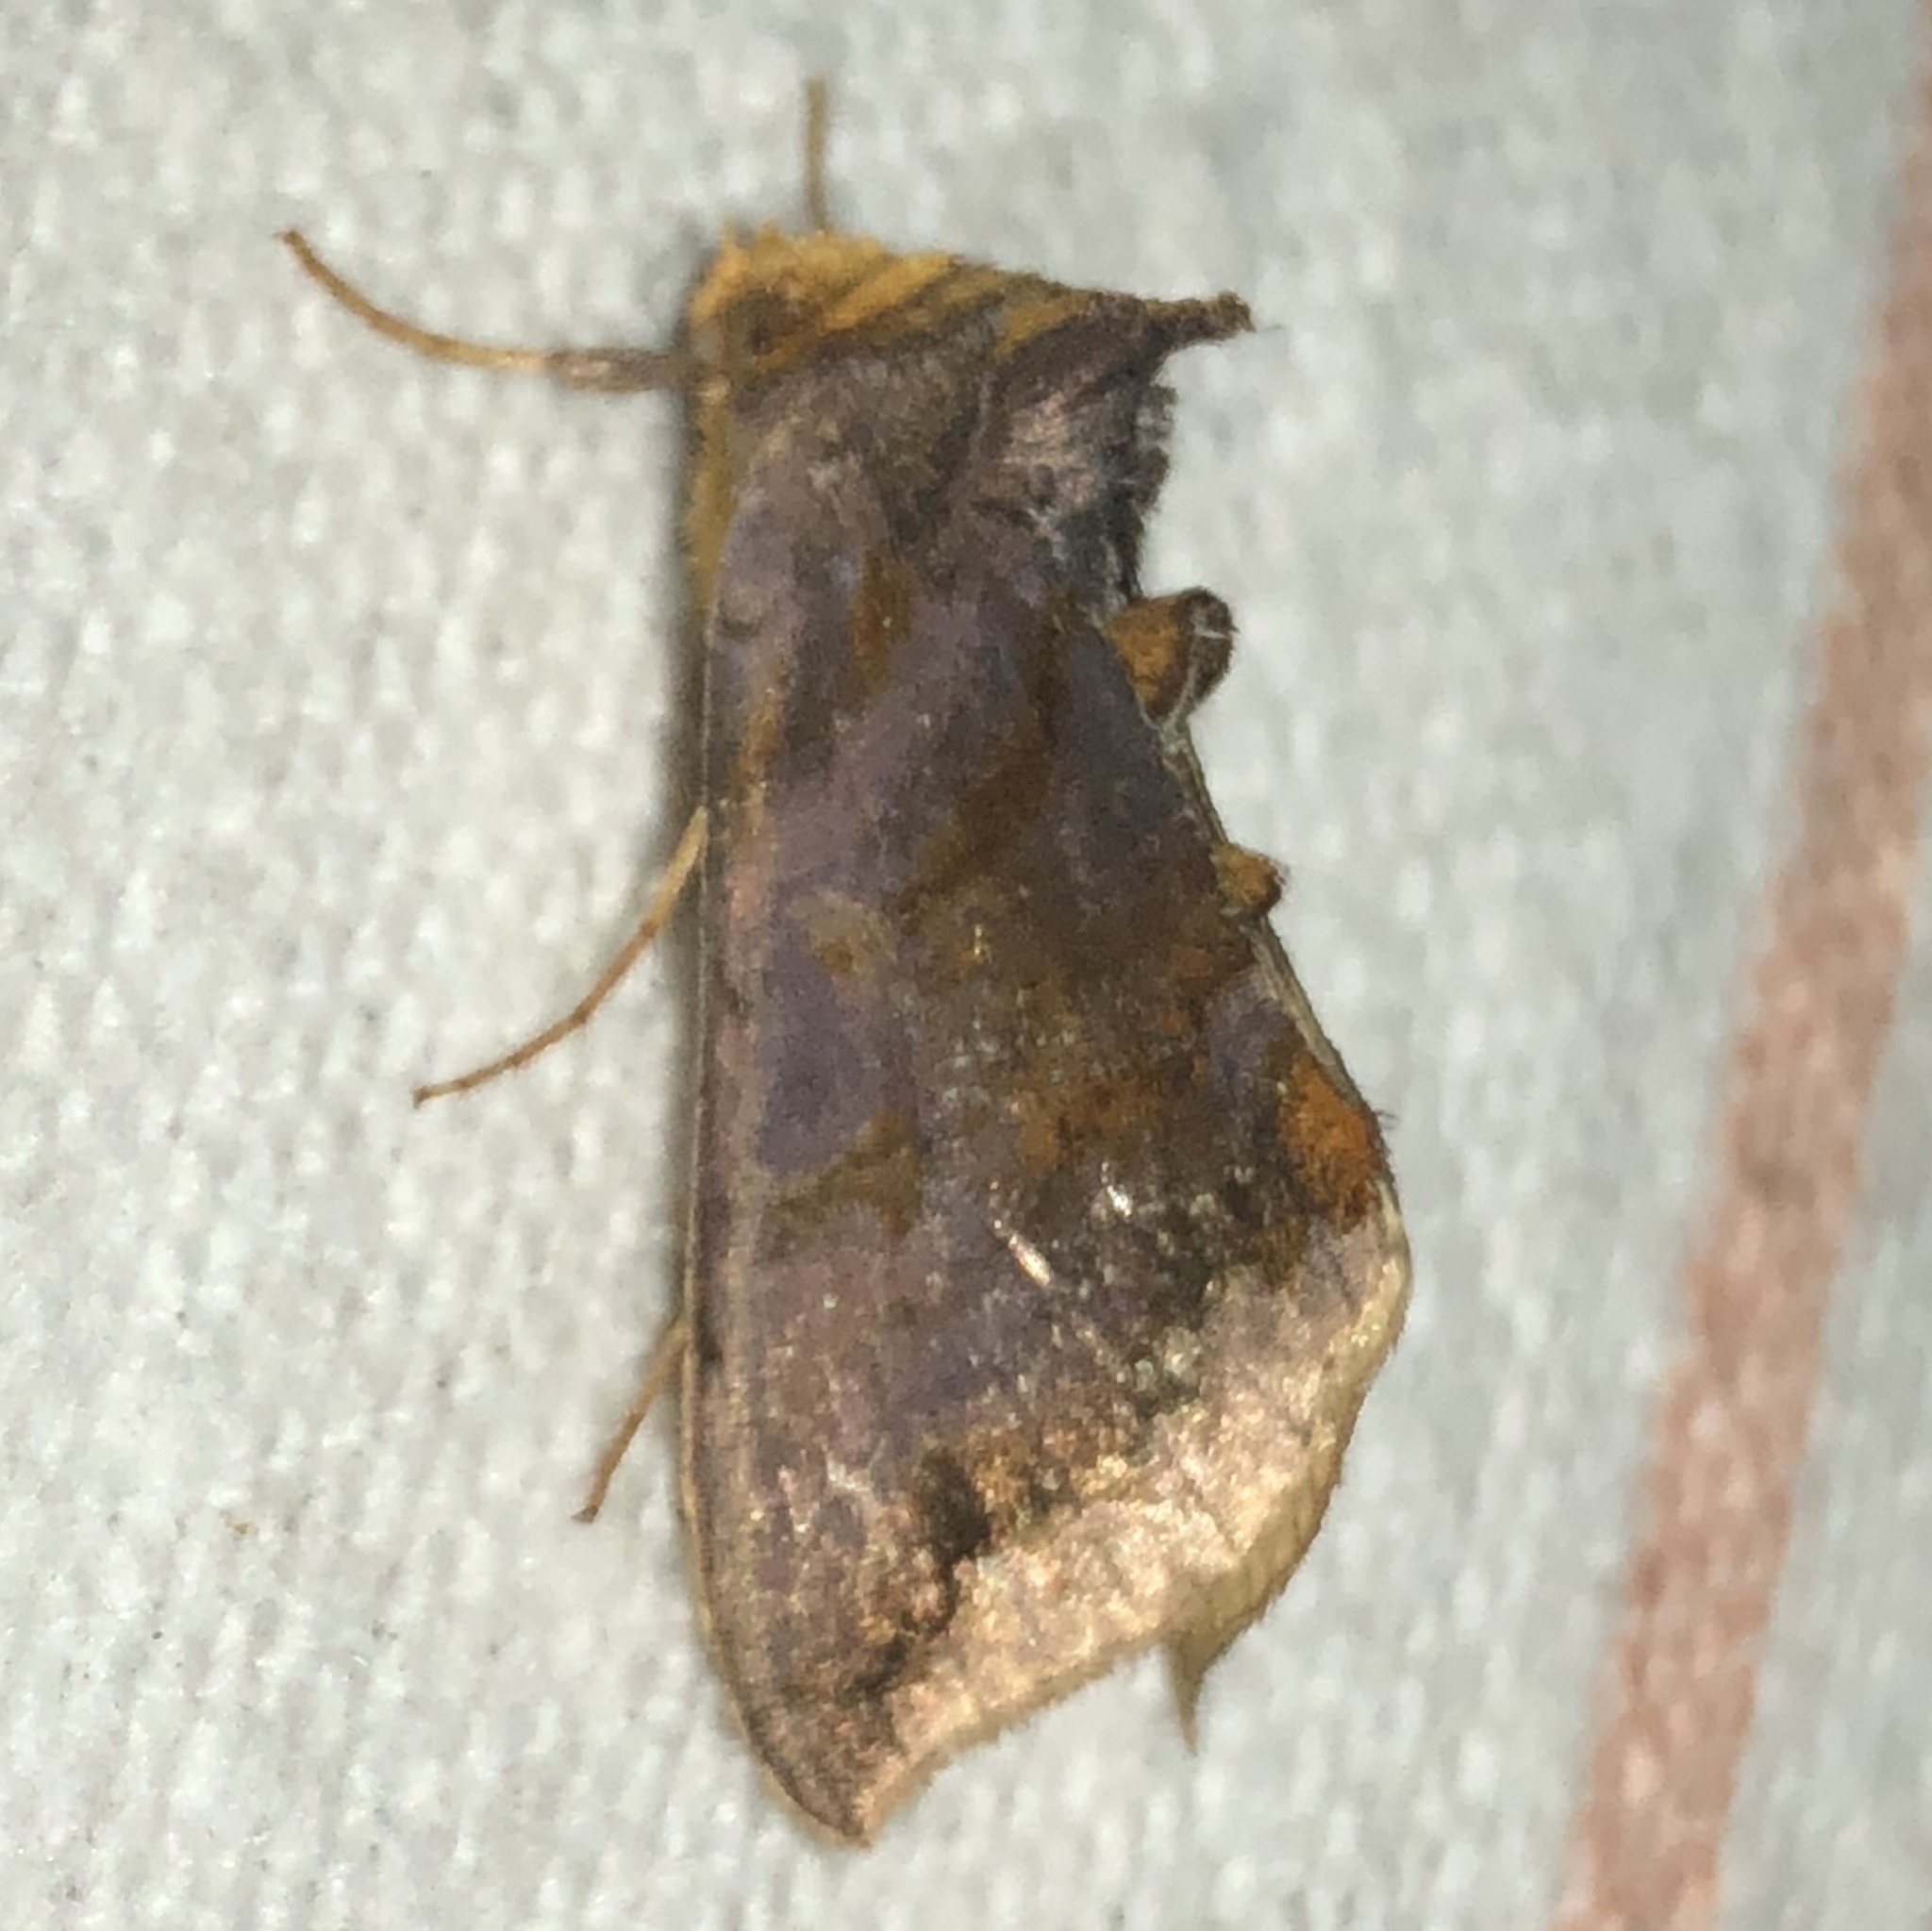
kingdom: Animalia
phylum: Arthropoda
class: Insecta
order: Lepidoptera
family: Noctuidae
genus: Allagrapha
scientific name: Allagrapha aerea
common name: Unspotted looper moth
